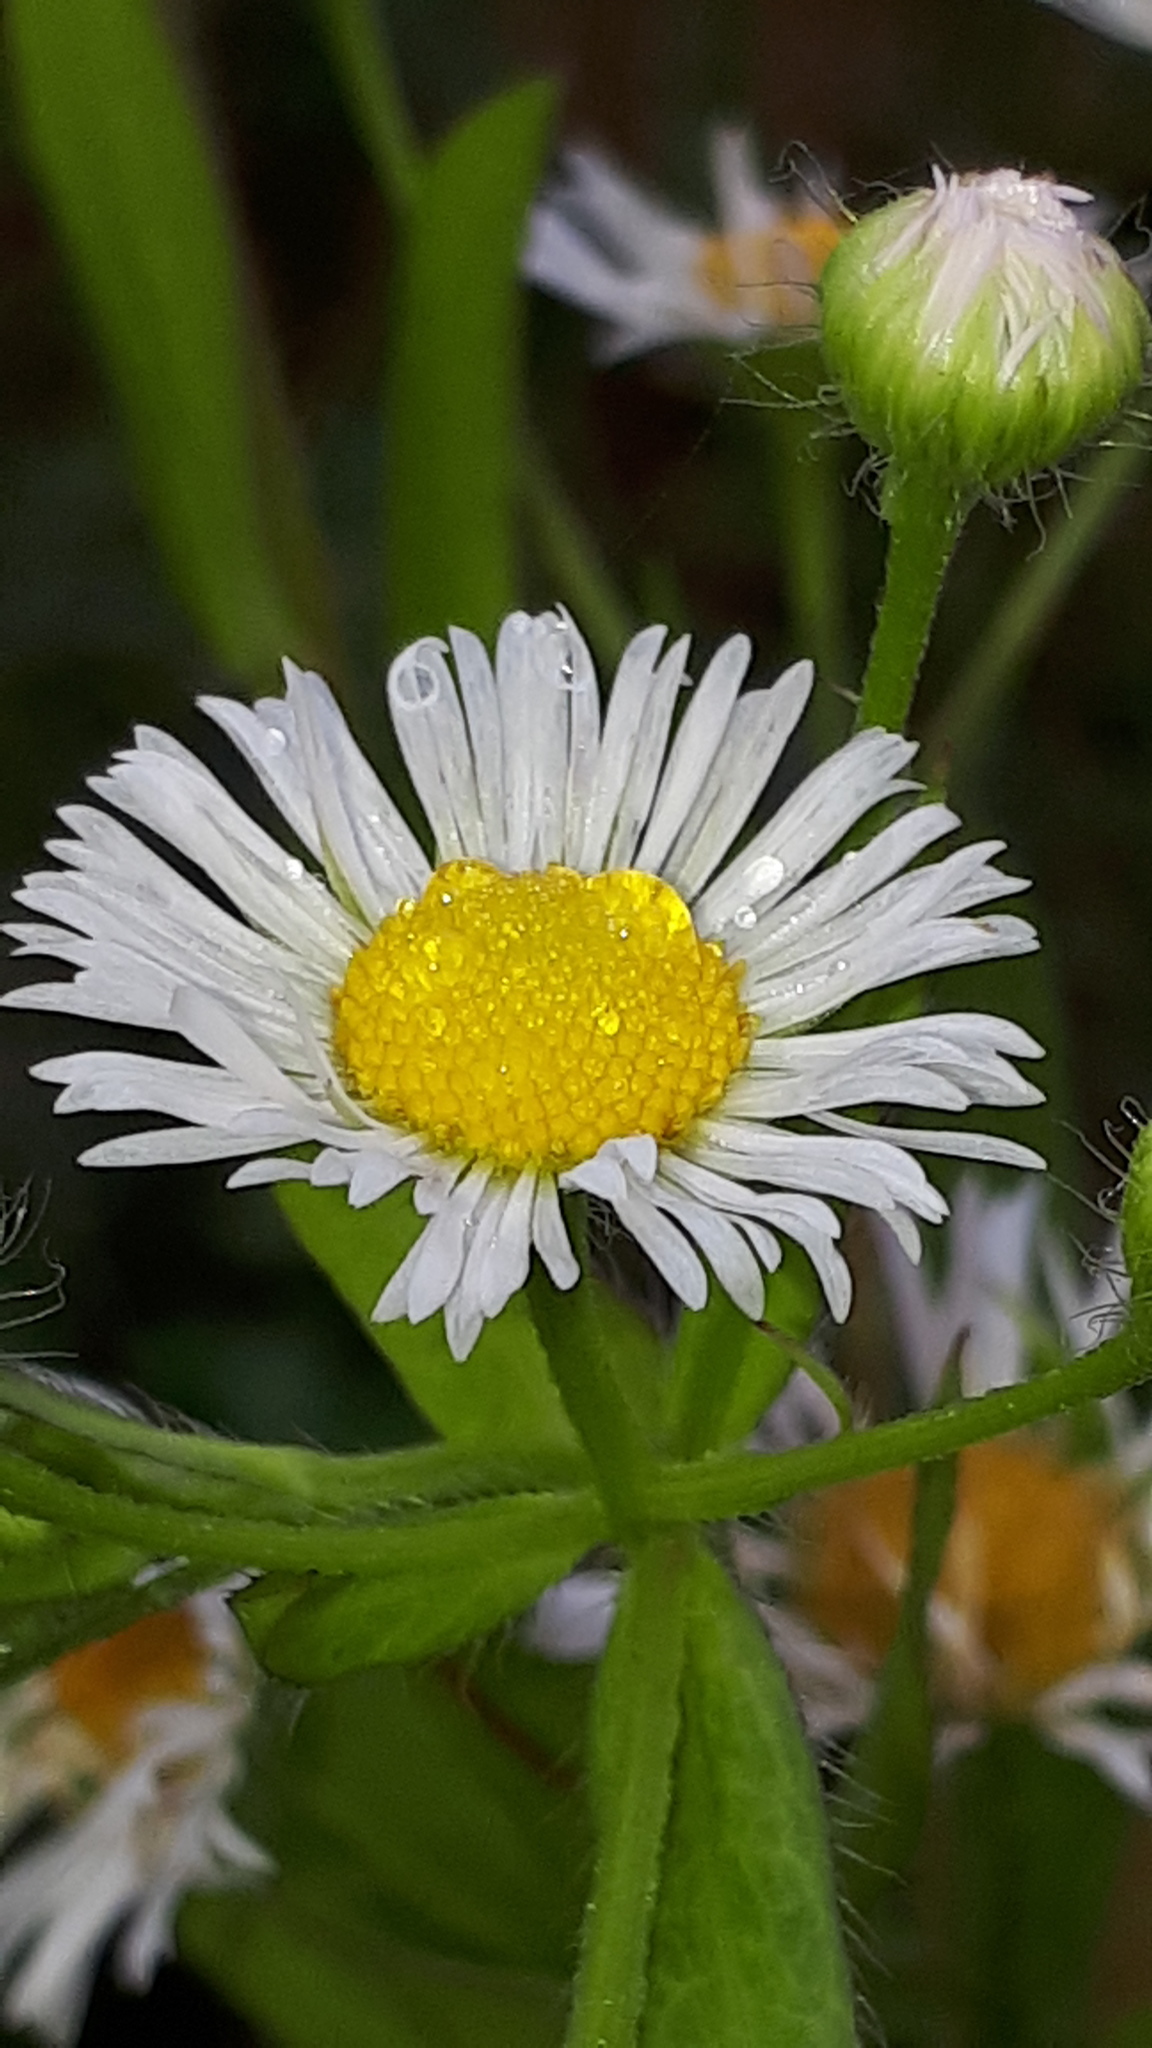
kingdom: Plantae
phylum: Tracheophyta
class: Magnoliopsida
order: Asterales
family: Asteraceae
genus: Erigeron
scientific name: Erigeron annuus
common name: Tall fleabane
